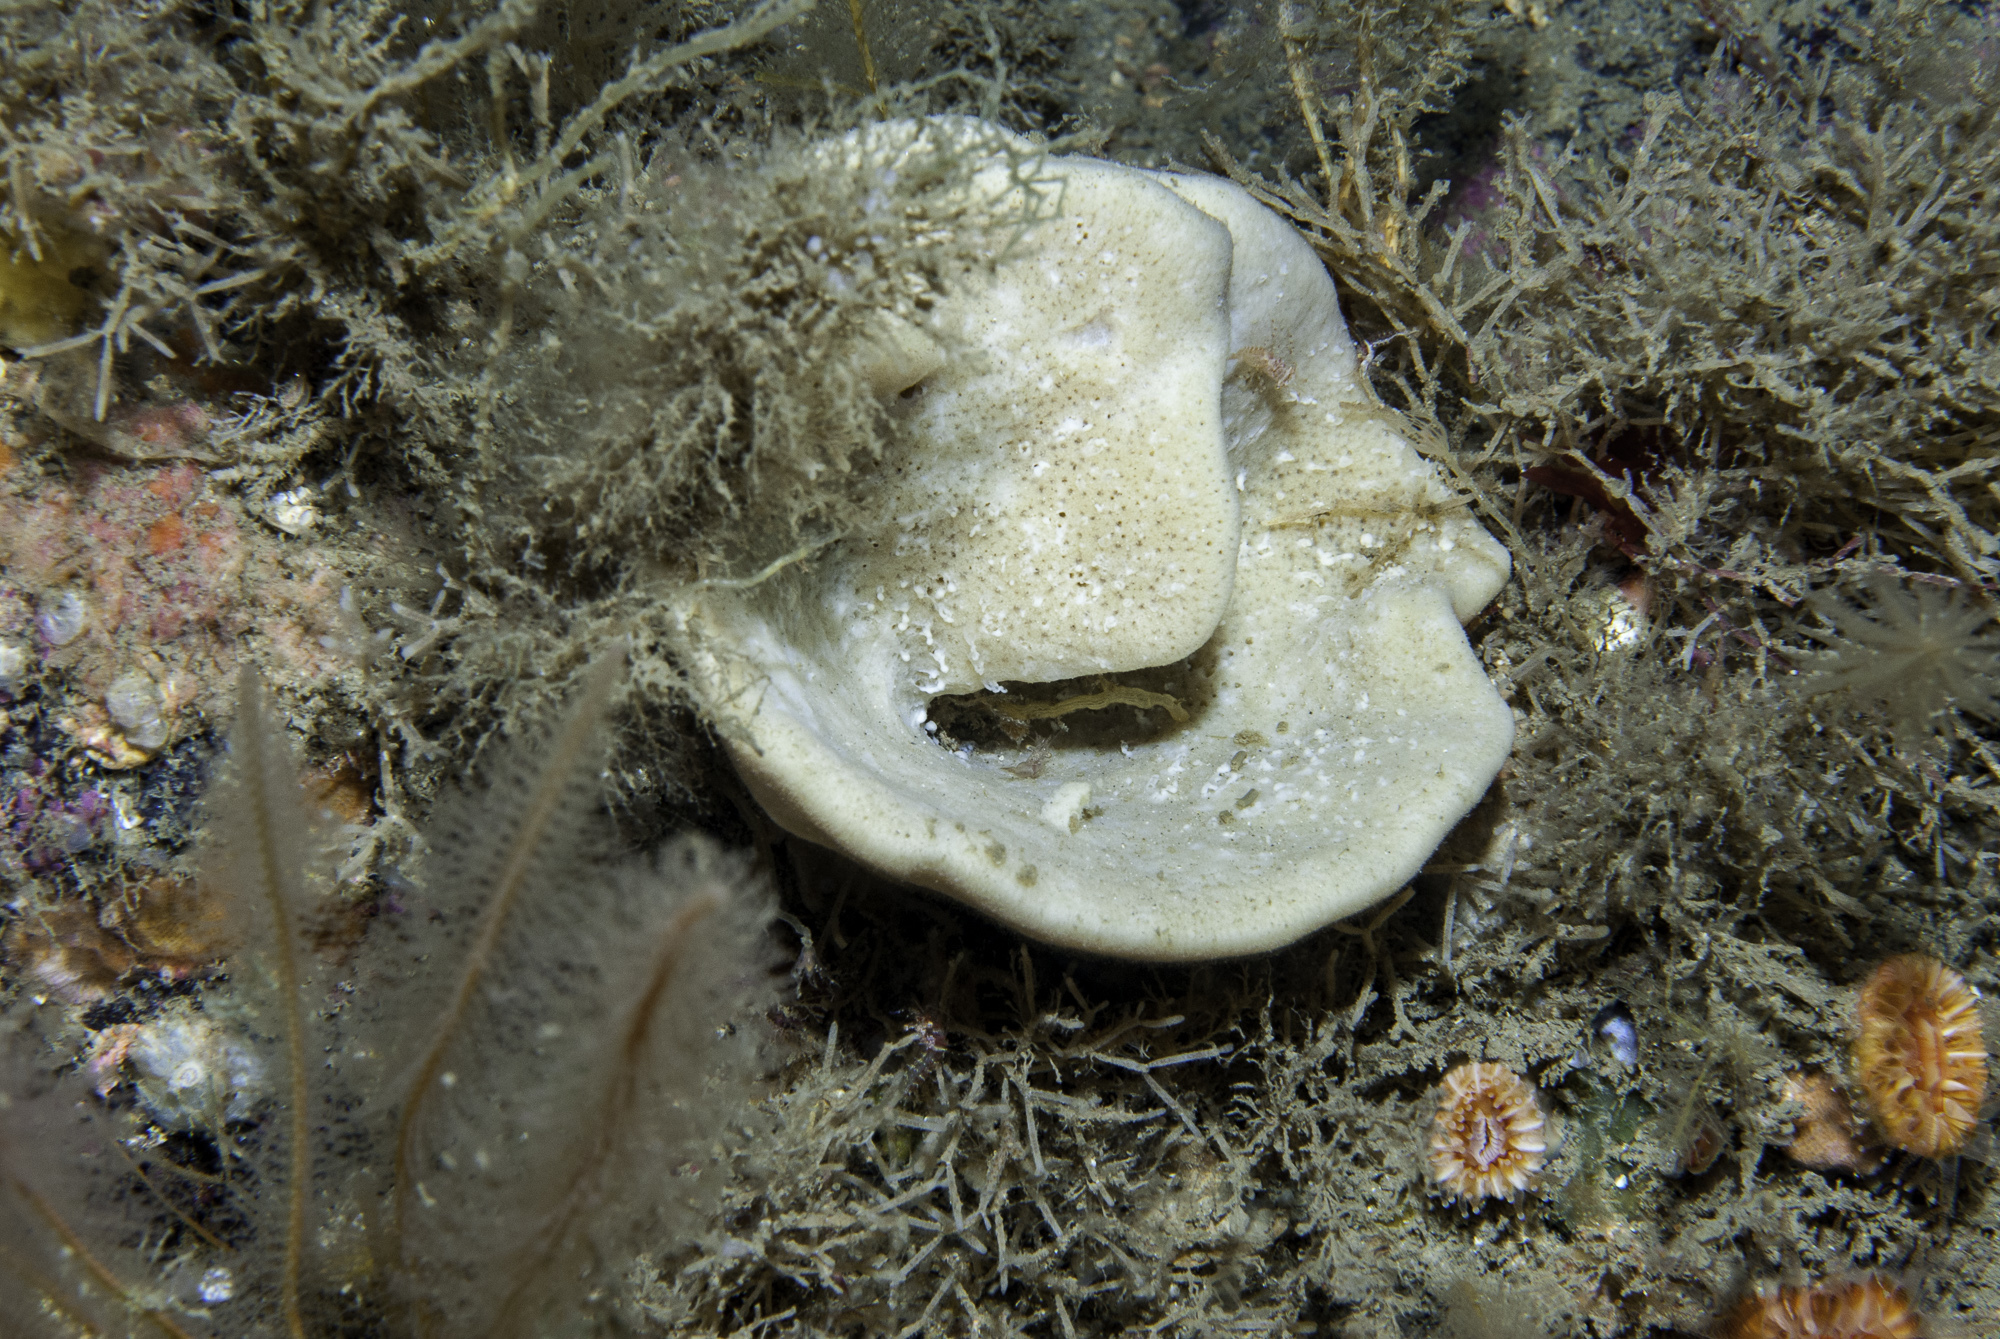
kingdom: Animalia
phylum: Porifera
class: Demospongiae
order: Axinellida
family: Axinellidae
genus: Axinella
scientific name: Axinella infundibuliformis
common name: North atlantic cup sponge
